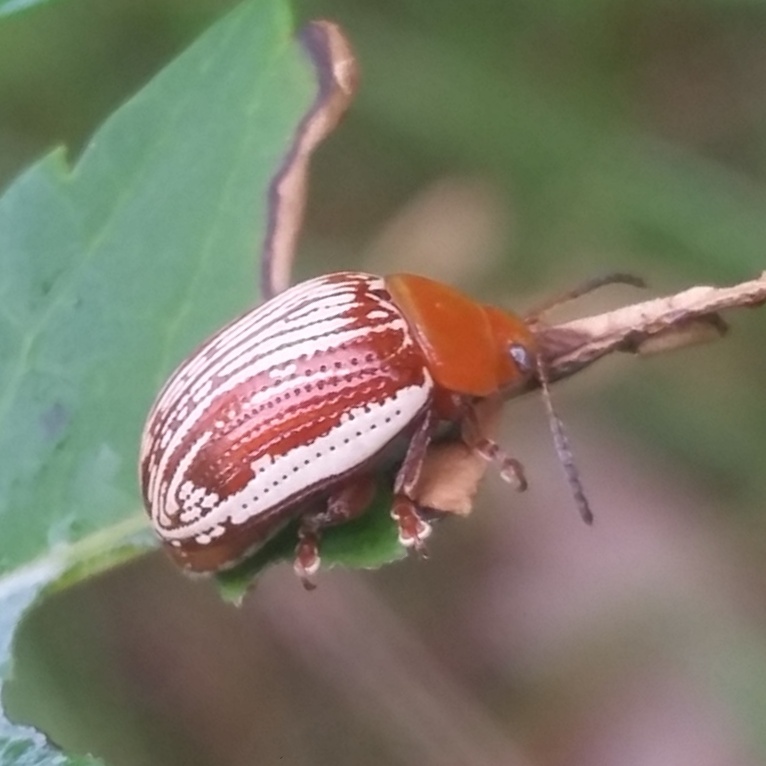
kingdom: Animalia
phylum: Arthropoda
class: Insecta
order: Coleoptera
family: Chrysomelidae
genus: Blepharida
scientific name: Blepharida rhois
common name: Sumac flea beetle
